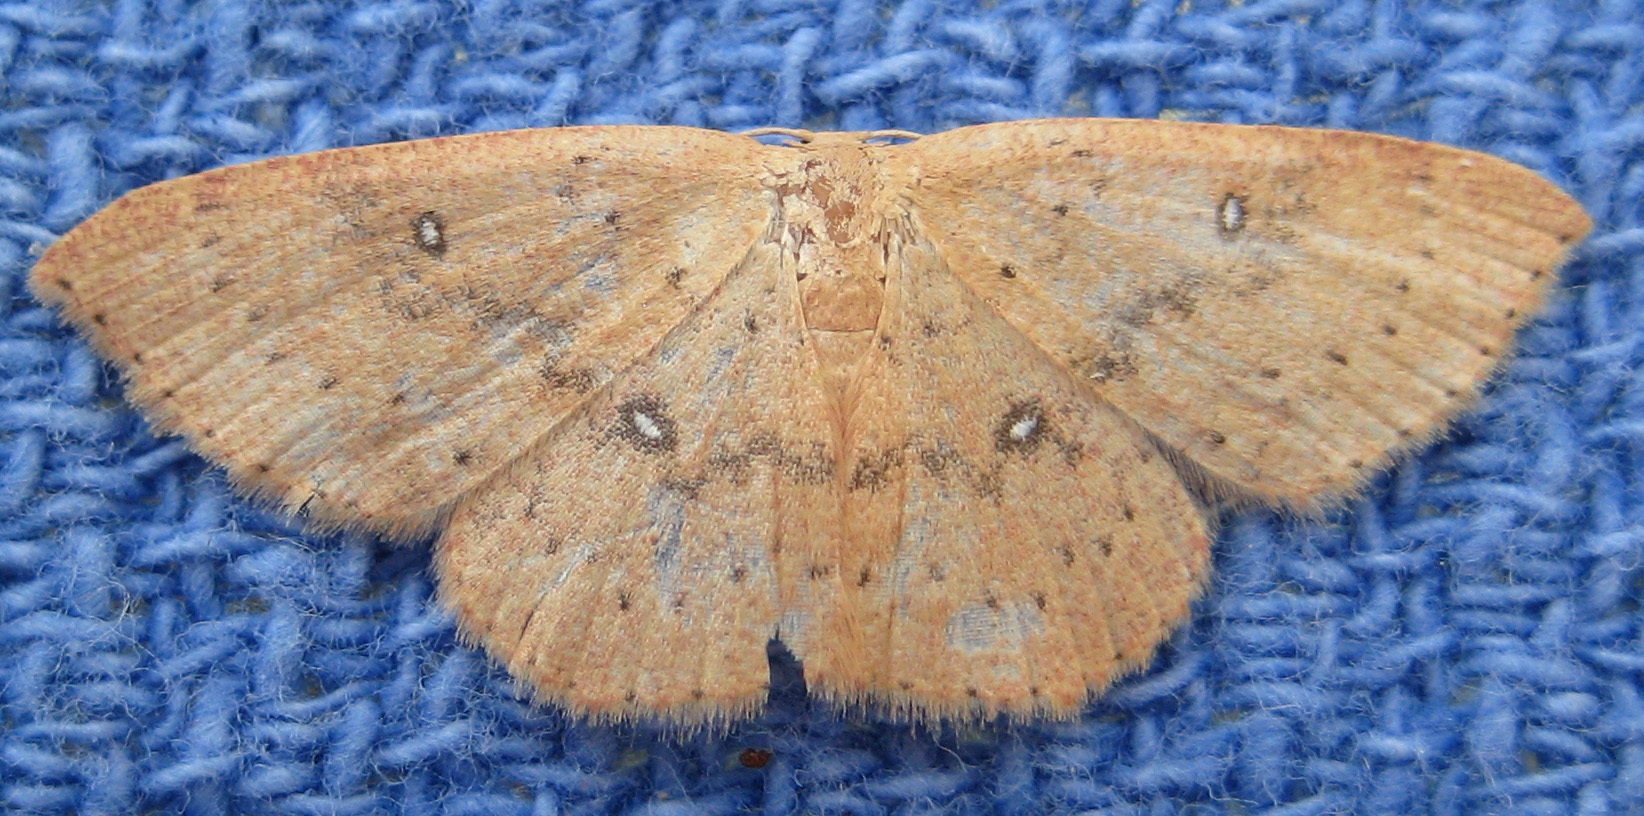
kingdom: Animalia
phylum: Arthropoda
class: Insecta
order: Lepidoptera
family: Geometridae
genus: Cyclophora
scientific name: Cyclophora packardi
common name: Packard's wave
